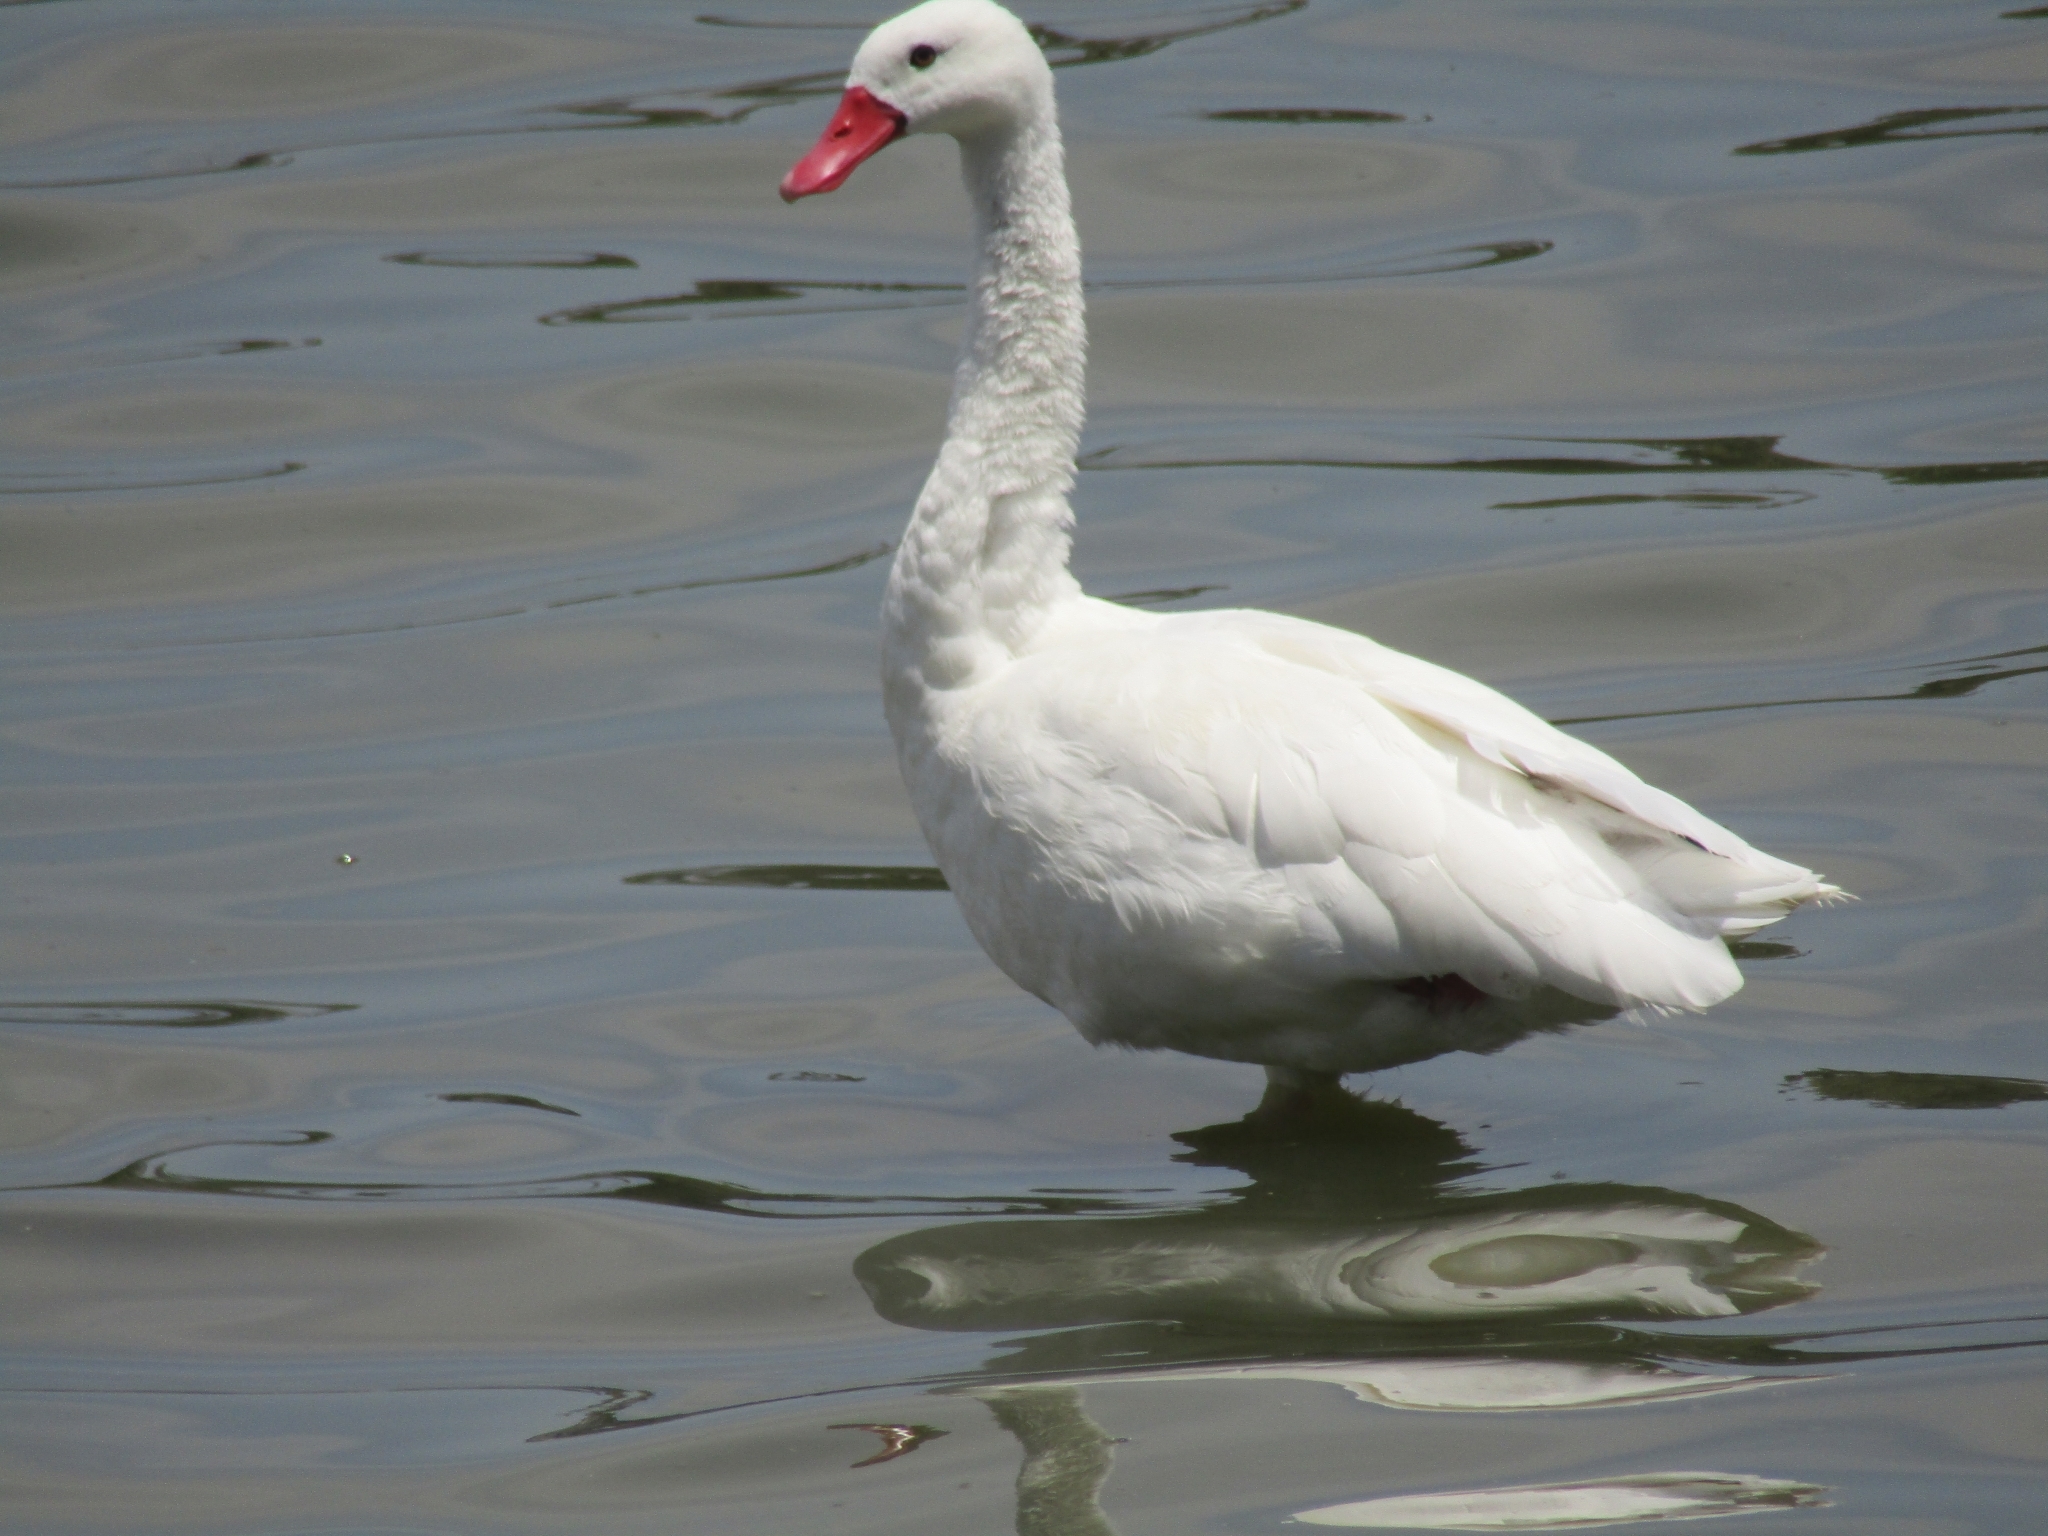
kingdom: Animalia
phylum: Chordata
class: Aves
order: Anseriformes
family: Anatidae
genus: Coscoroba
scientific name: Coscoroba coscoroba
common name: Coscoroba swan
